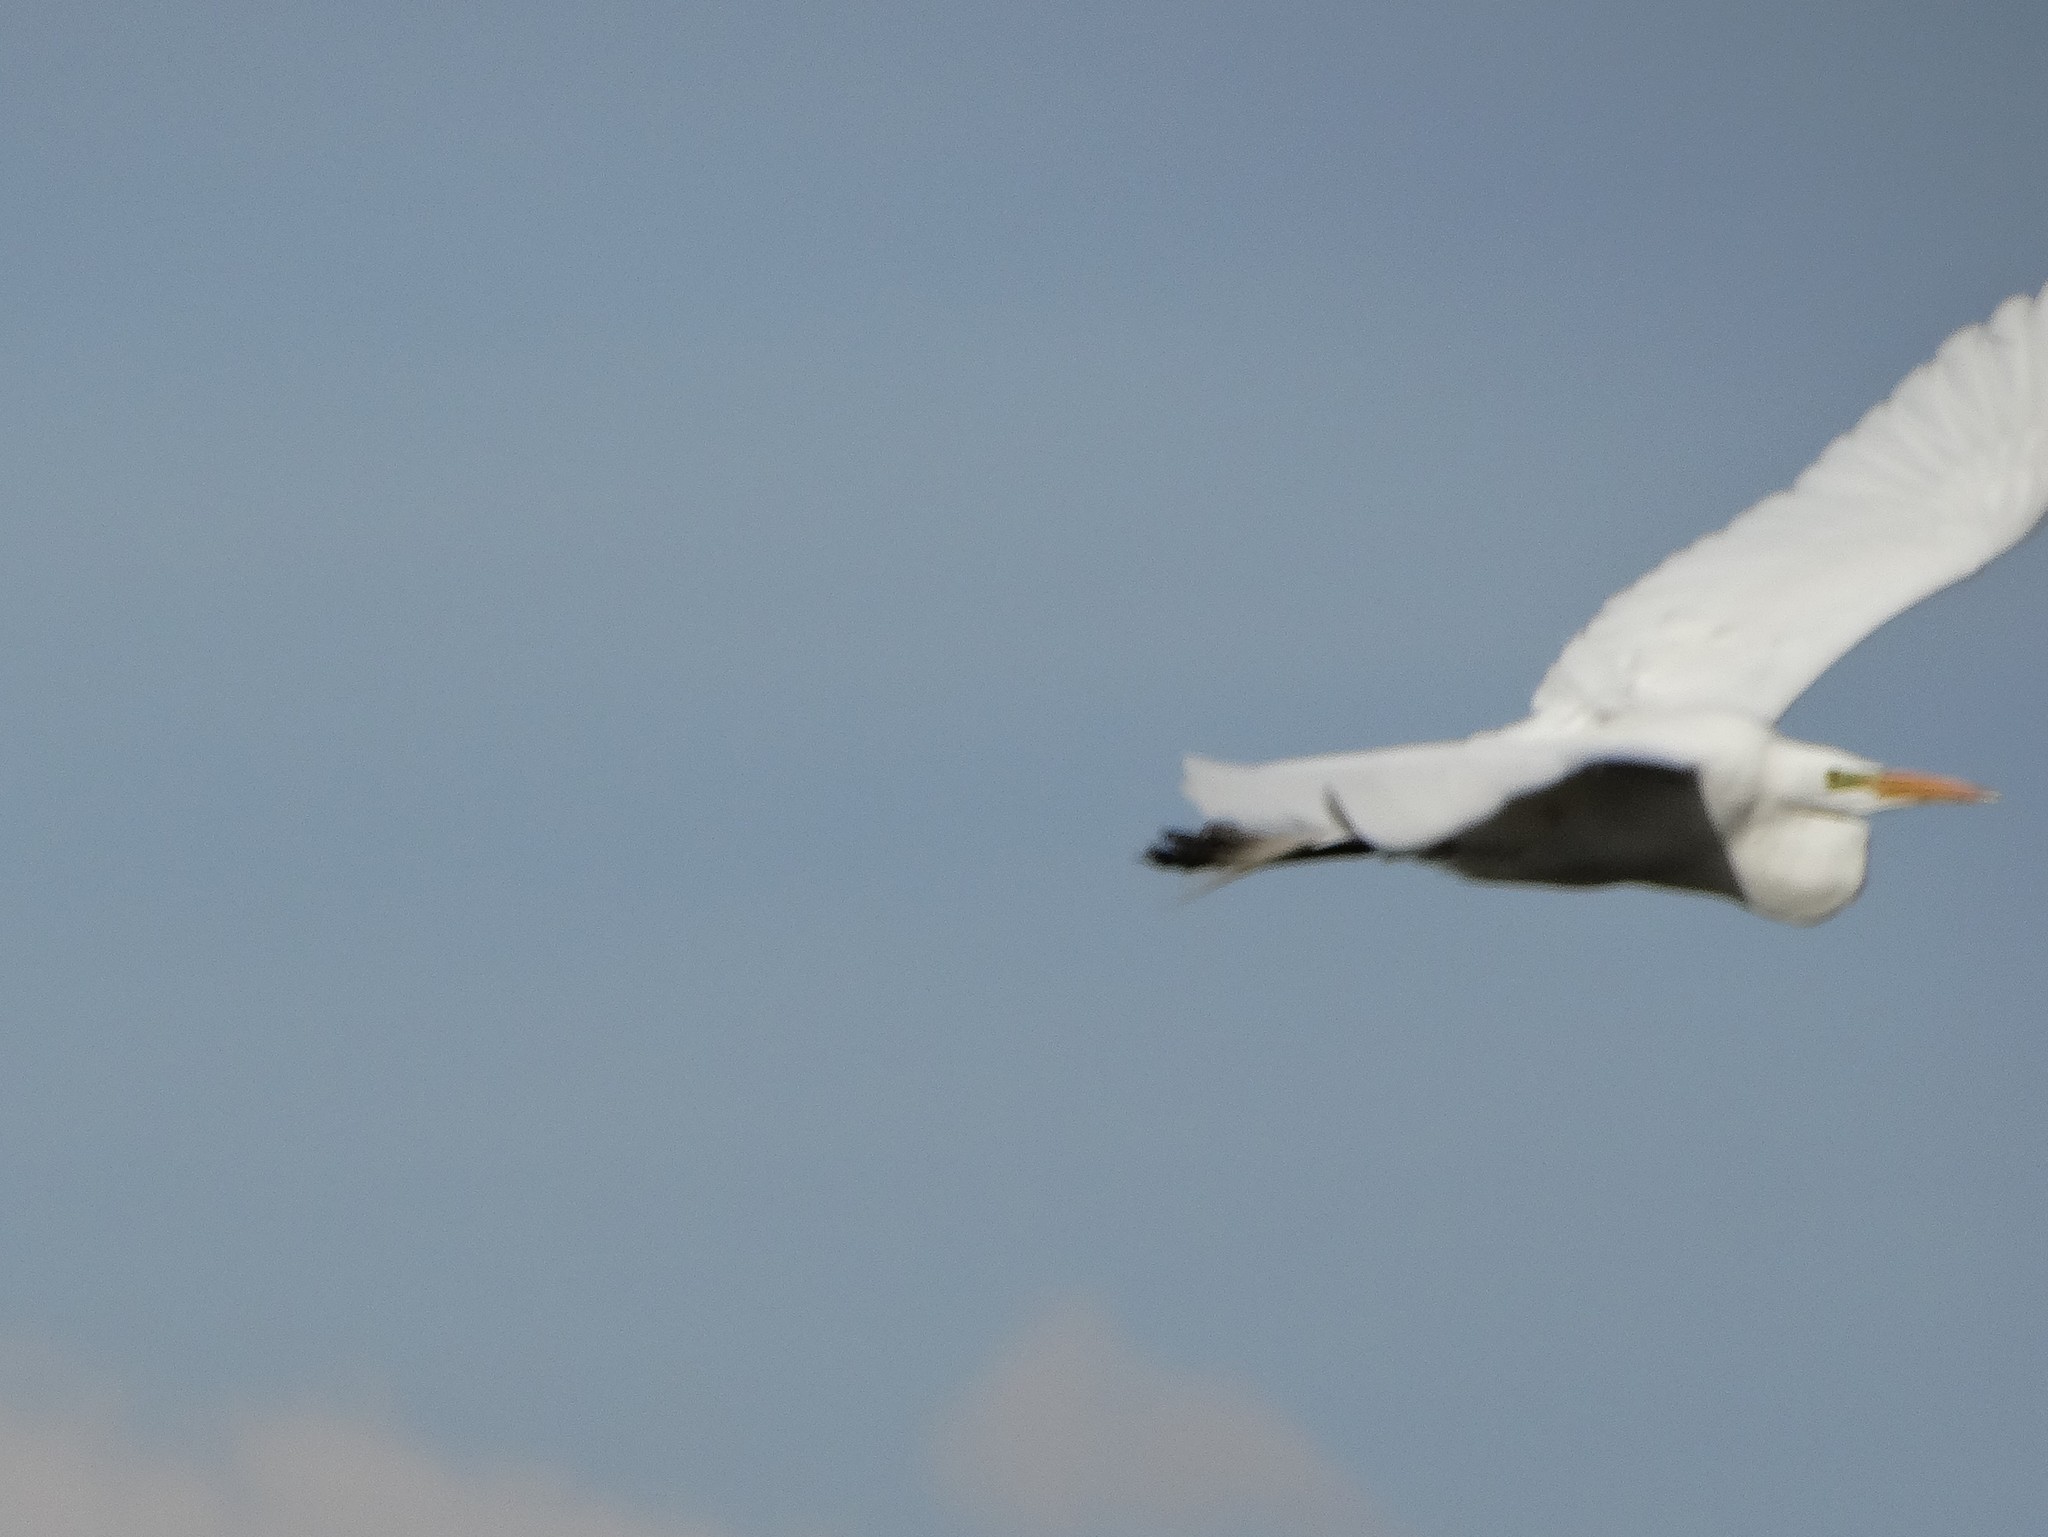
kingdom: Animalia
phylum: Chordata
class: Aves
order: Pelecaniformes
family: Ardeidae
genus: Ardea
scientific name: Ardea alba
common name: Great egret
